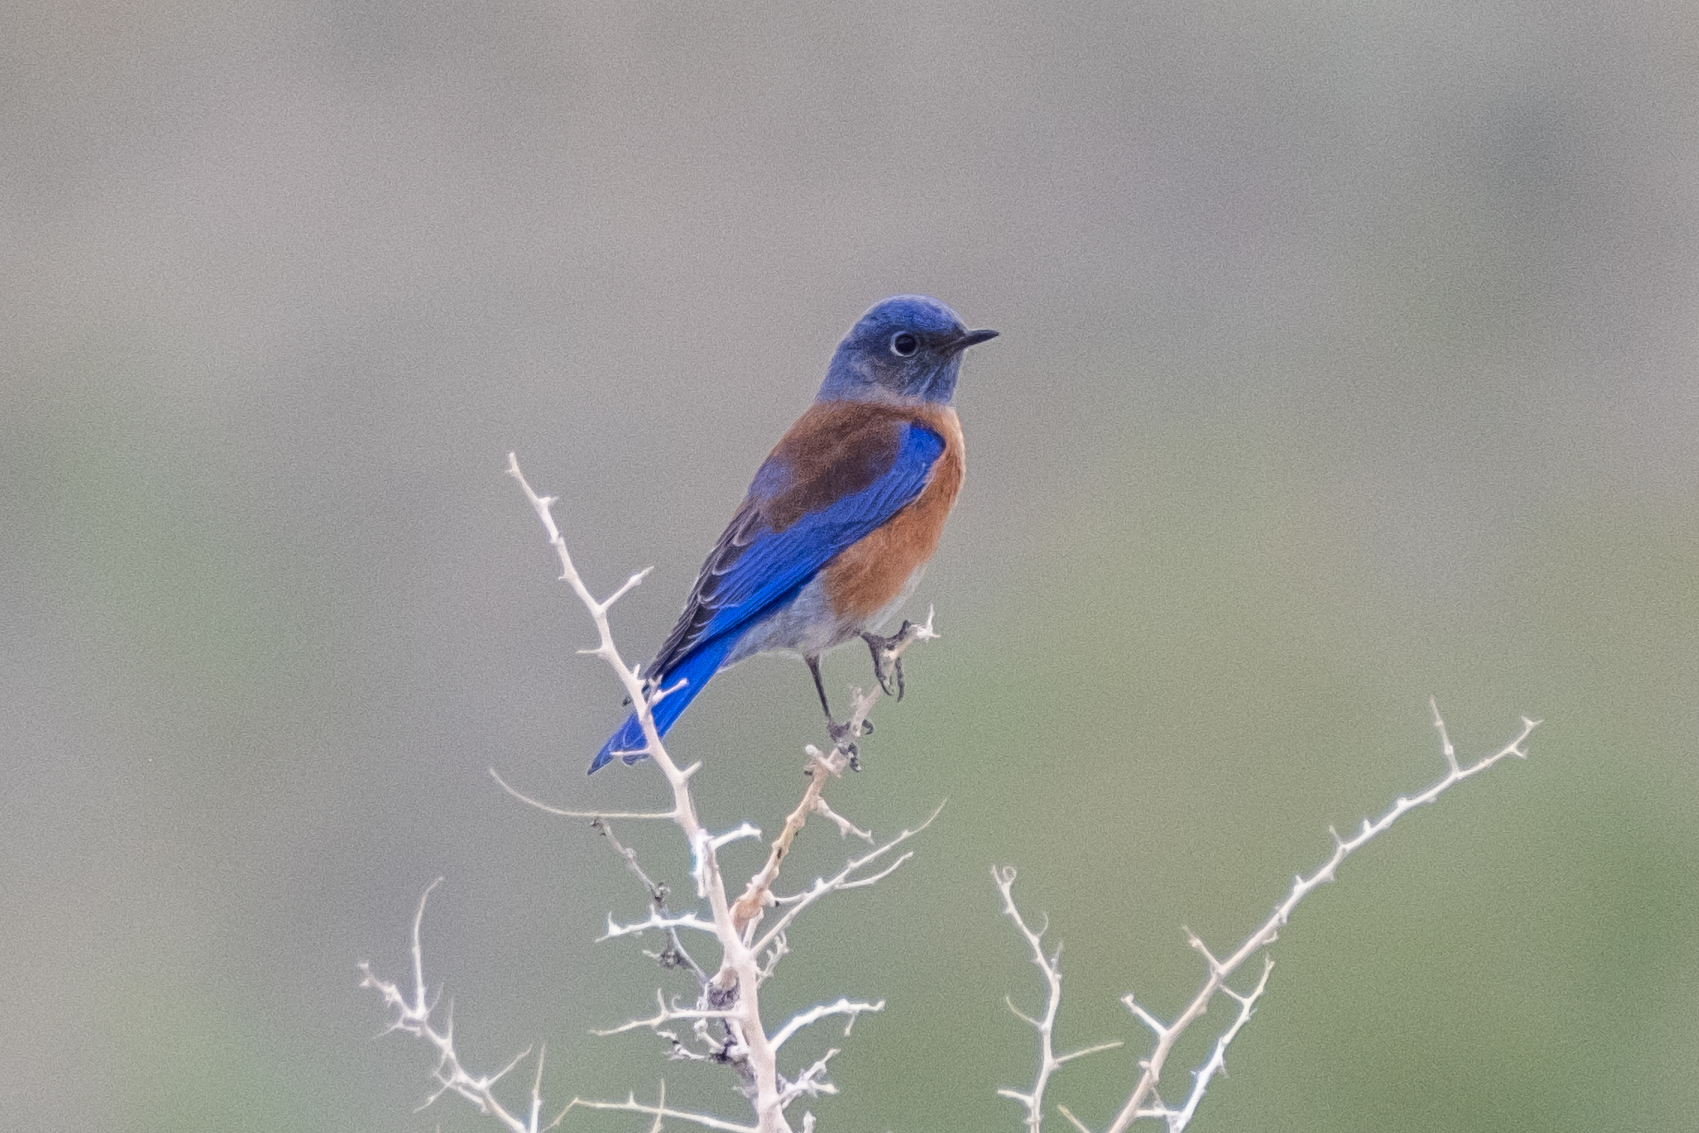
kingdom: Animalia
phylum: Chordata
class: Aves
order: Passeriformes
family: Turdidae
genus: Sialia
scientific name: Sialia mexicana
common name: Western bluebird
